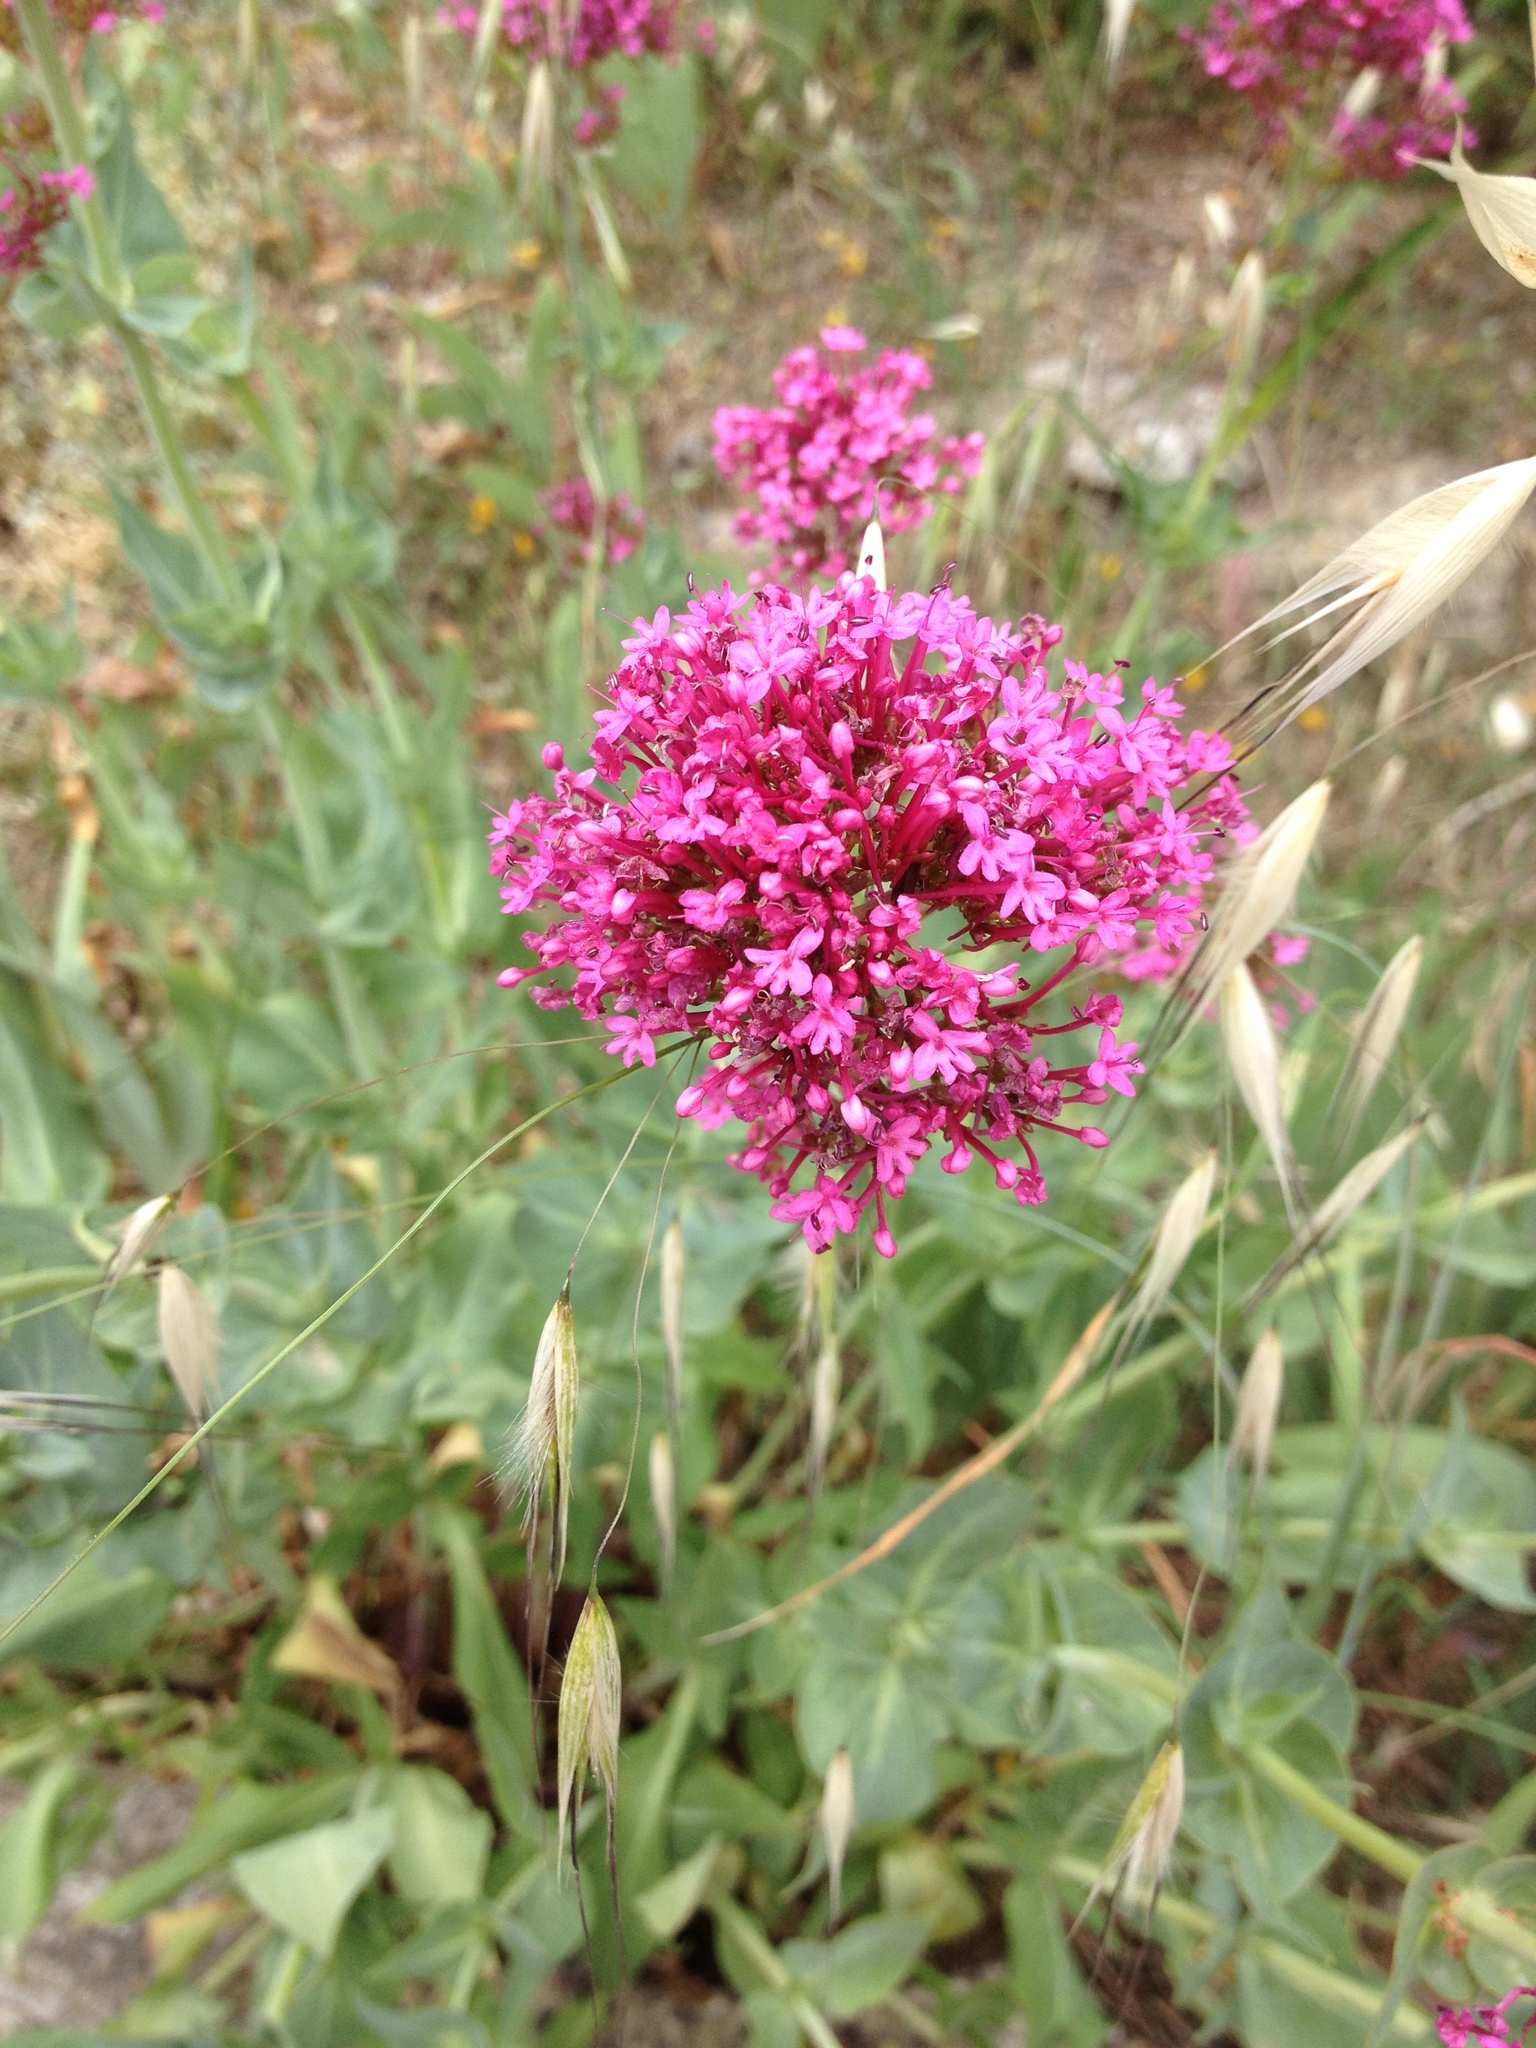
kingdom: Plantae
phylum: Tracheophyta
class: Magnoliopsida
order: Dipsacales
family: Caprifoliaceae
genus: Centranthus
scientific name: Centranthus ruber
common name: Red valerian
